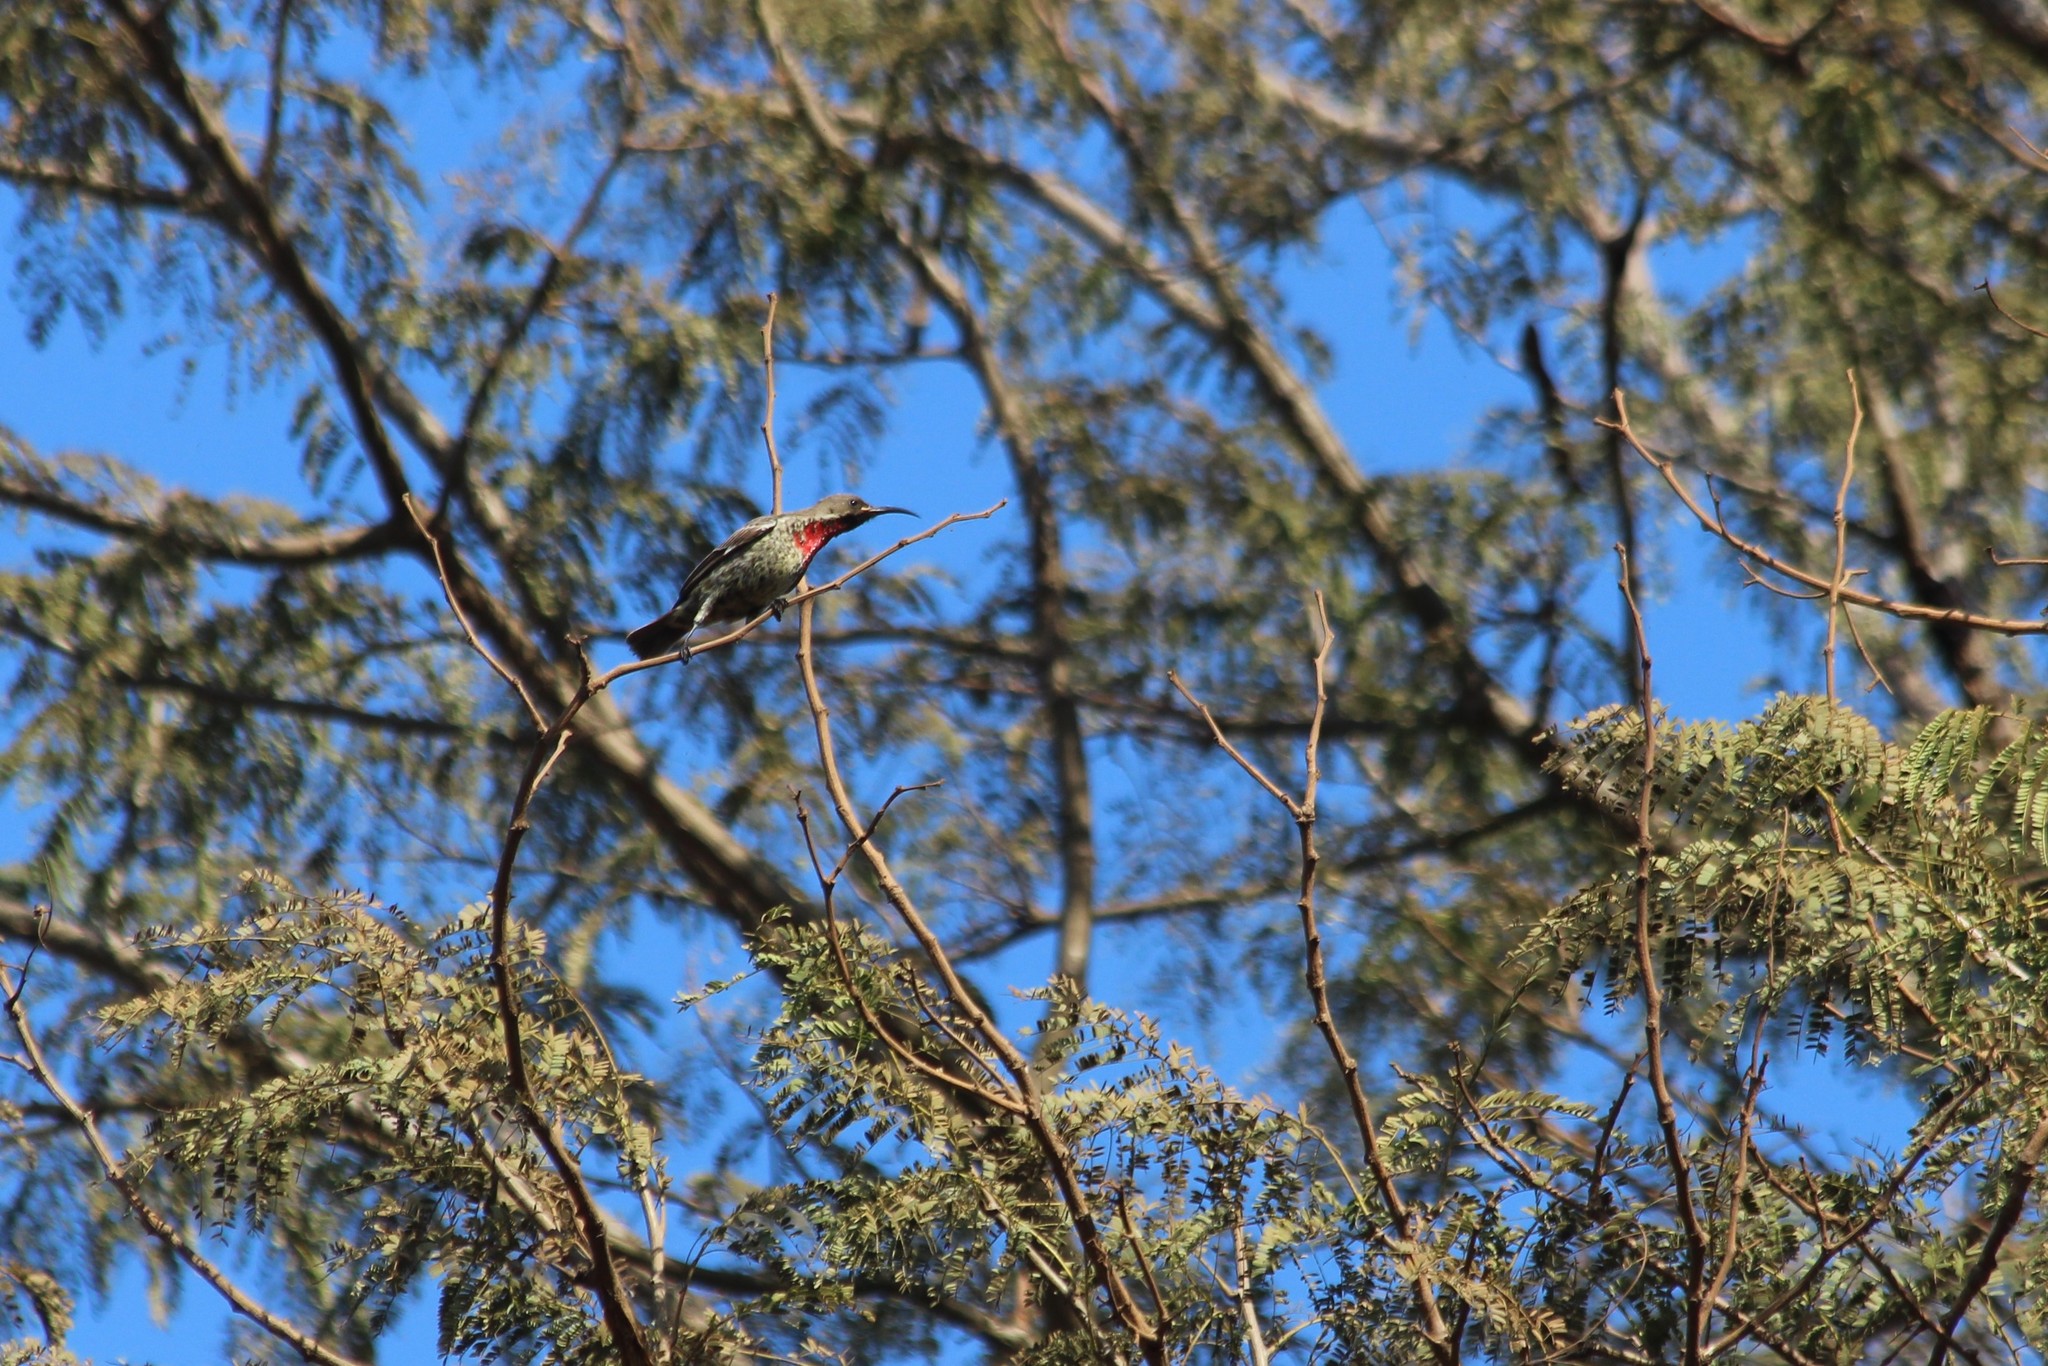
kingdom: Animalia
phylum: Chordata
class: Aves
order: Passeriformes
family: Nectariniidae
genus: Chalcomitra
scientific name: Chalcomitra senegalensis
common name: Scarlet-chested sunbird
